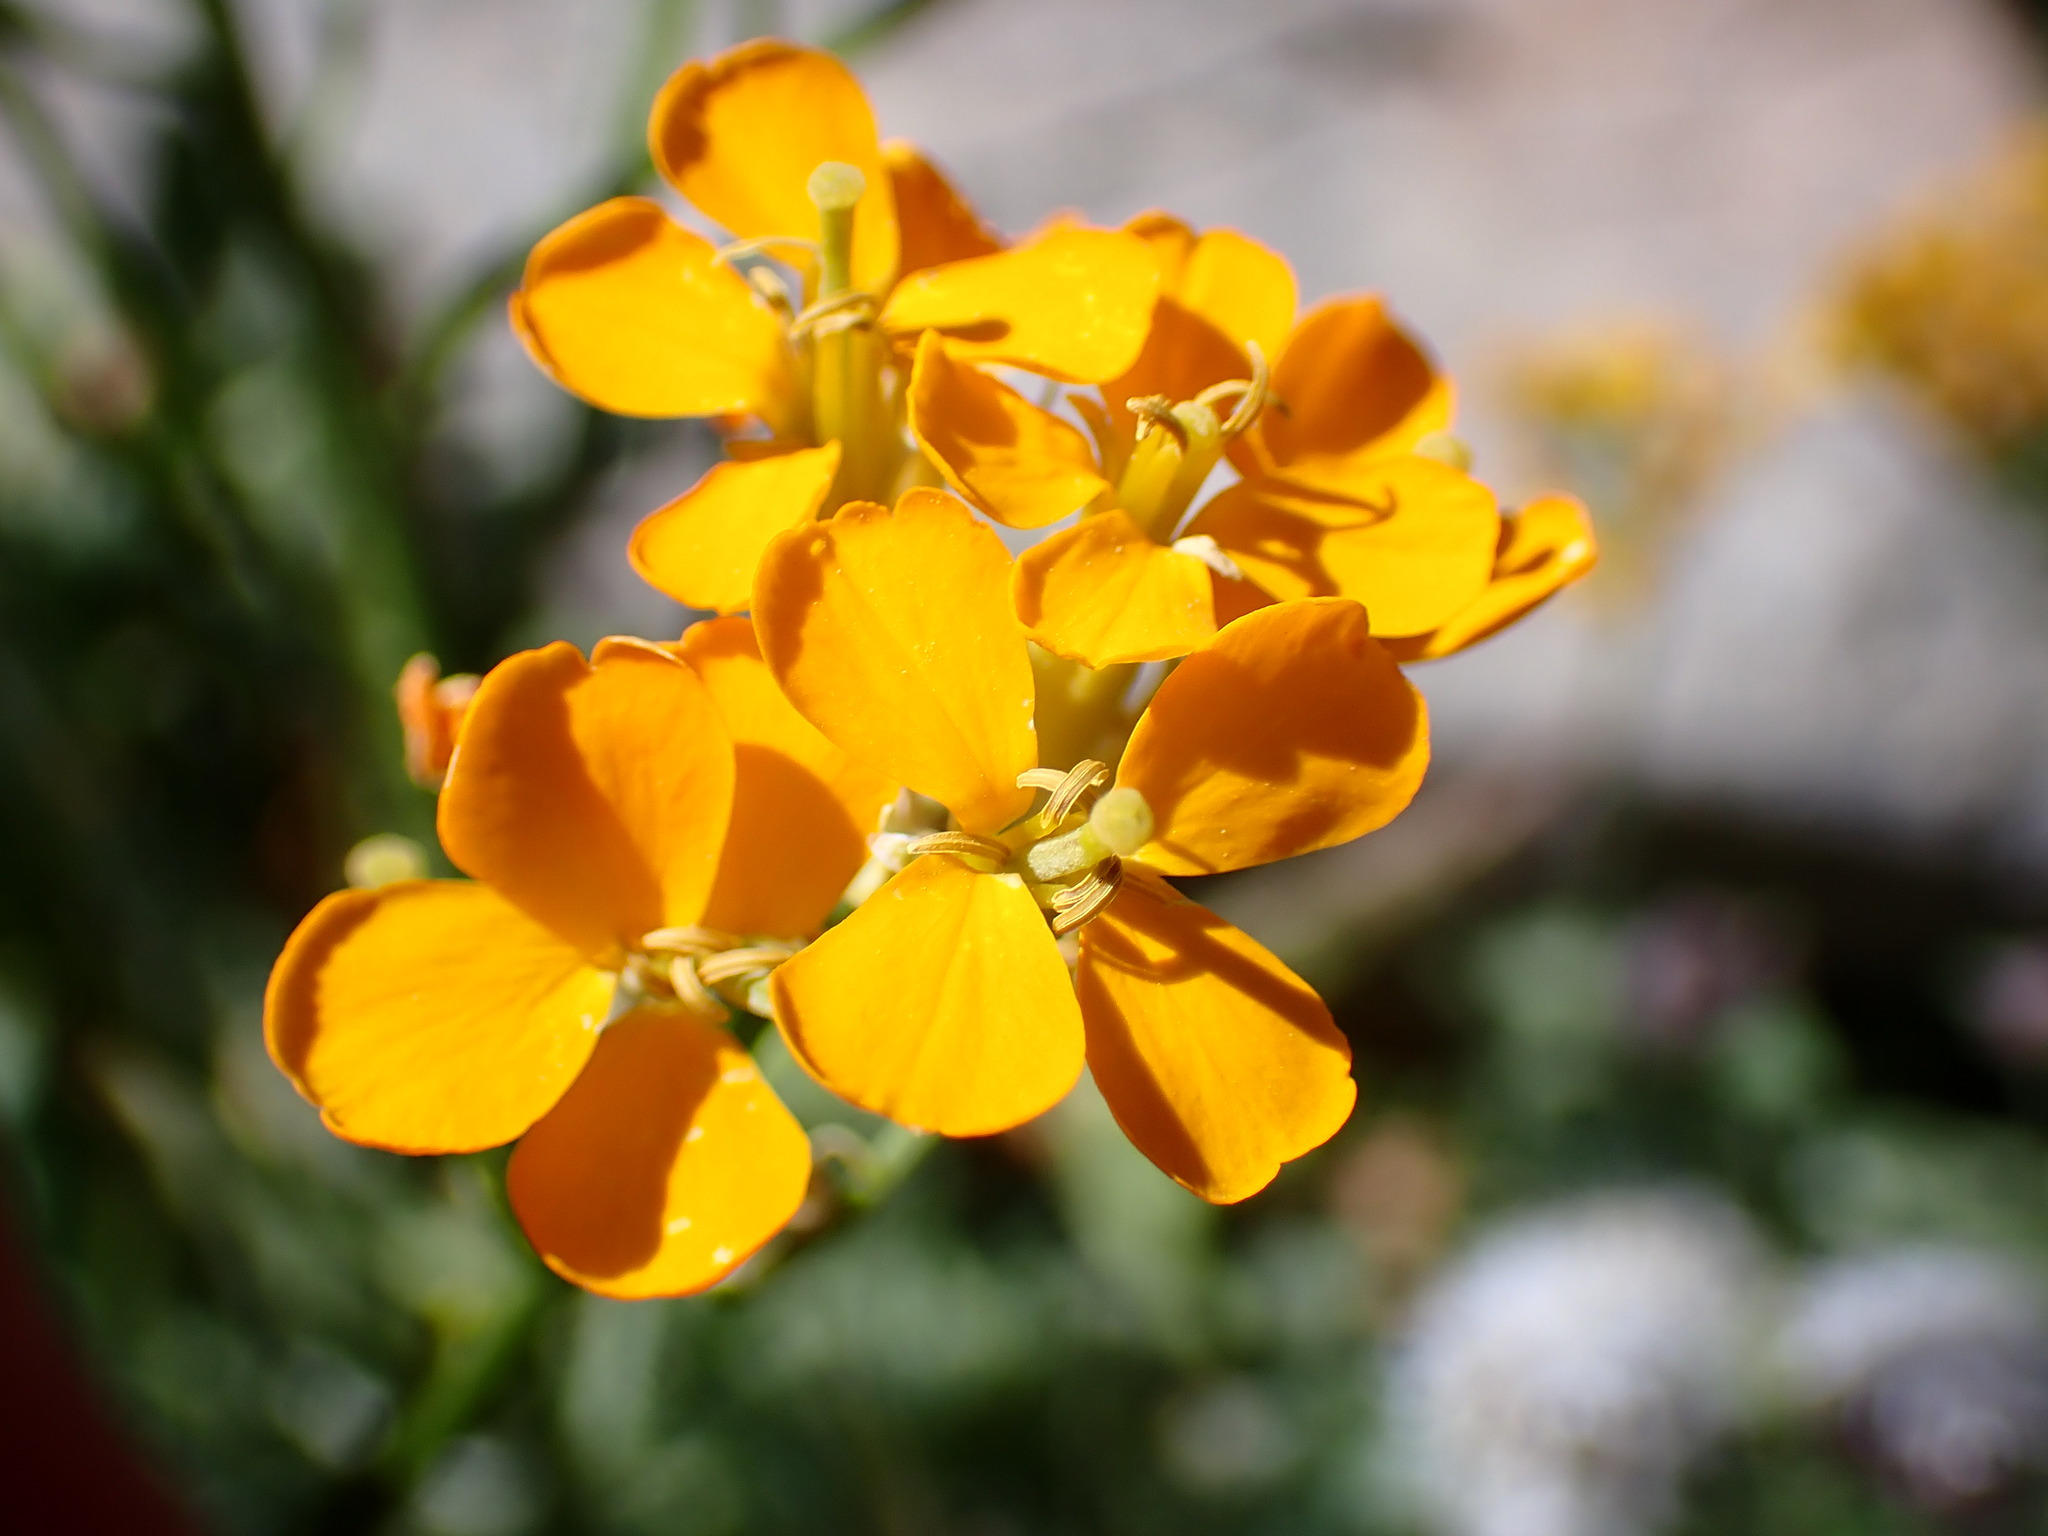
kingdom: Plantae
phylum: Tracheophyta
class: Magnoliopsida
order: Brassicales
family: Brassicaceae
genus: Erysimum
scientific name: Erysimum capitatum
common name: Western wallflower
